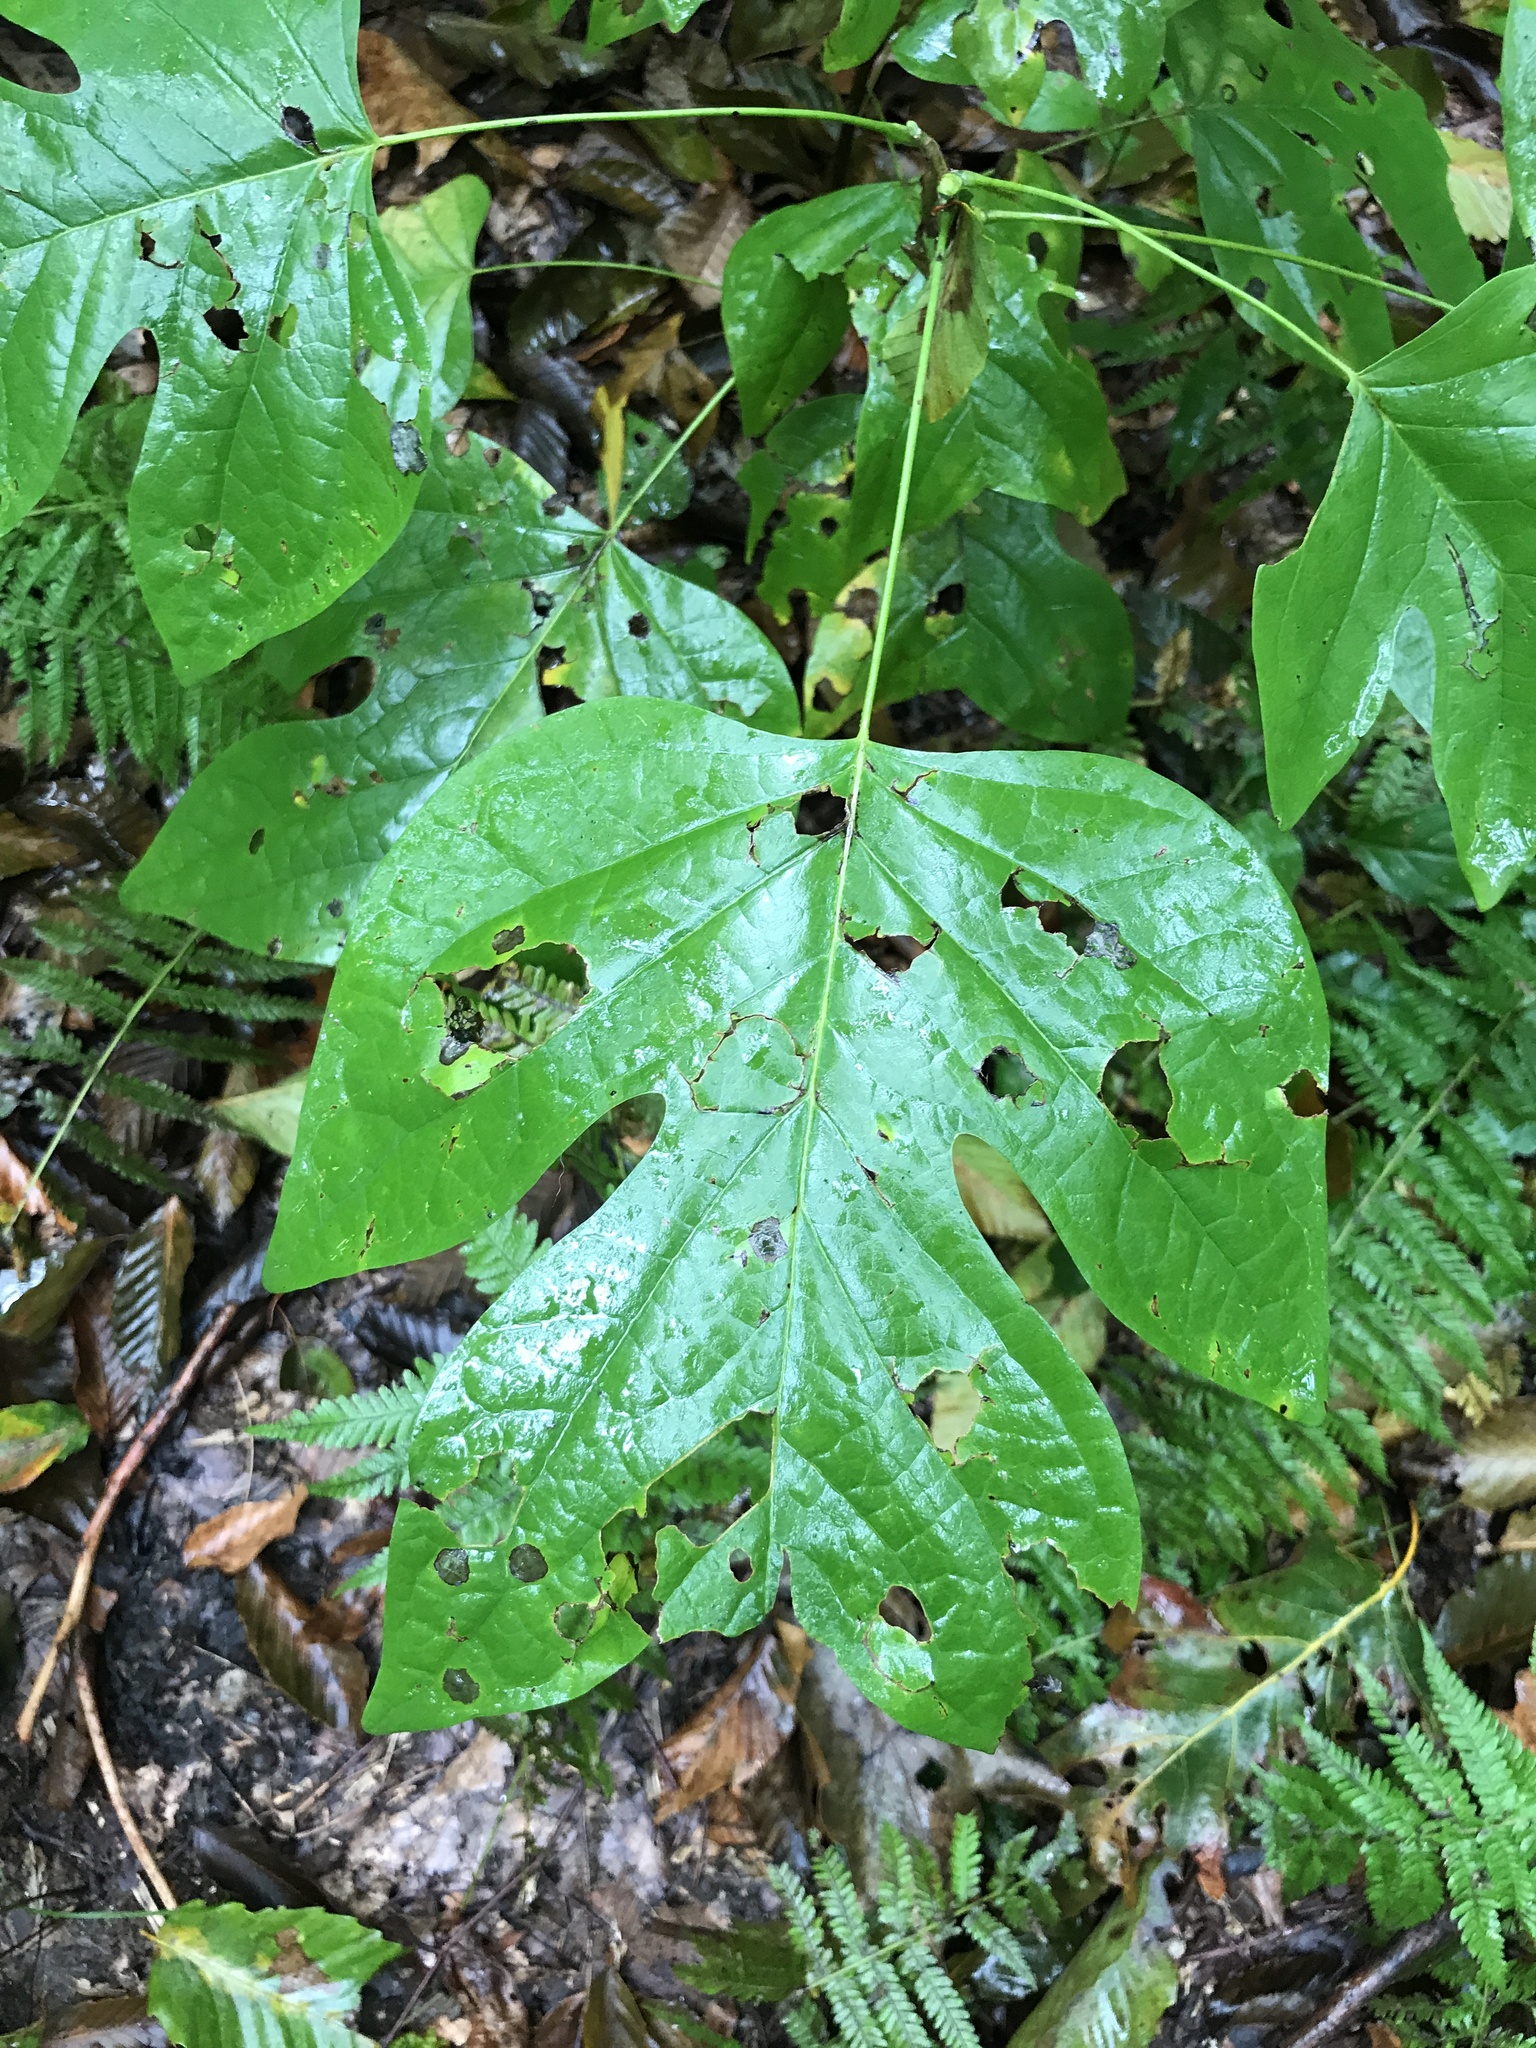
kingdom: Plantae
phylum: Tracheophyta
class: Magnoliopsida
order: Magnoliales
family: Magnoliaceae
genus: Liriodendron
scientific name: Liriodendron tulipifera
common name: Tulip tree
